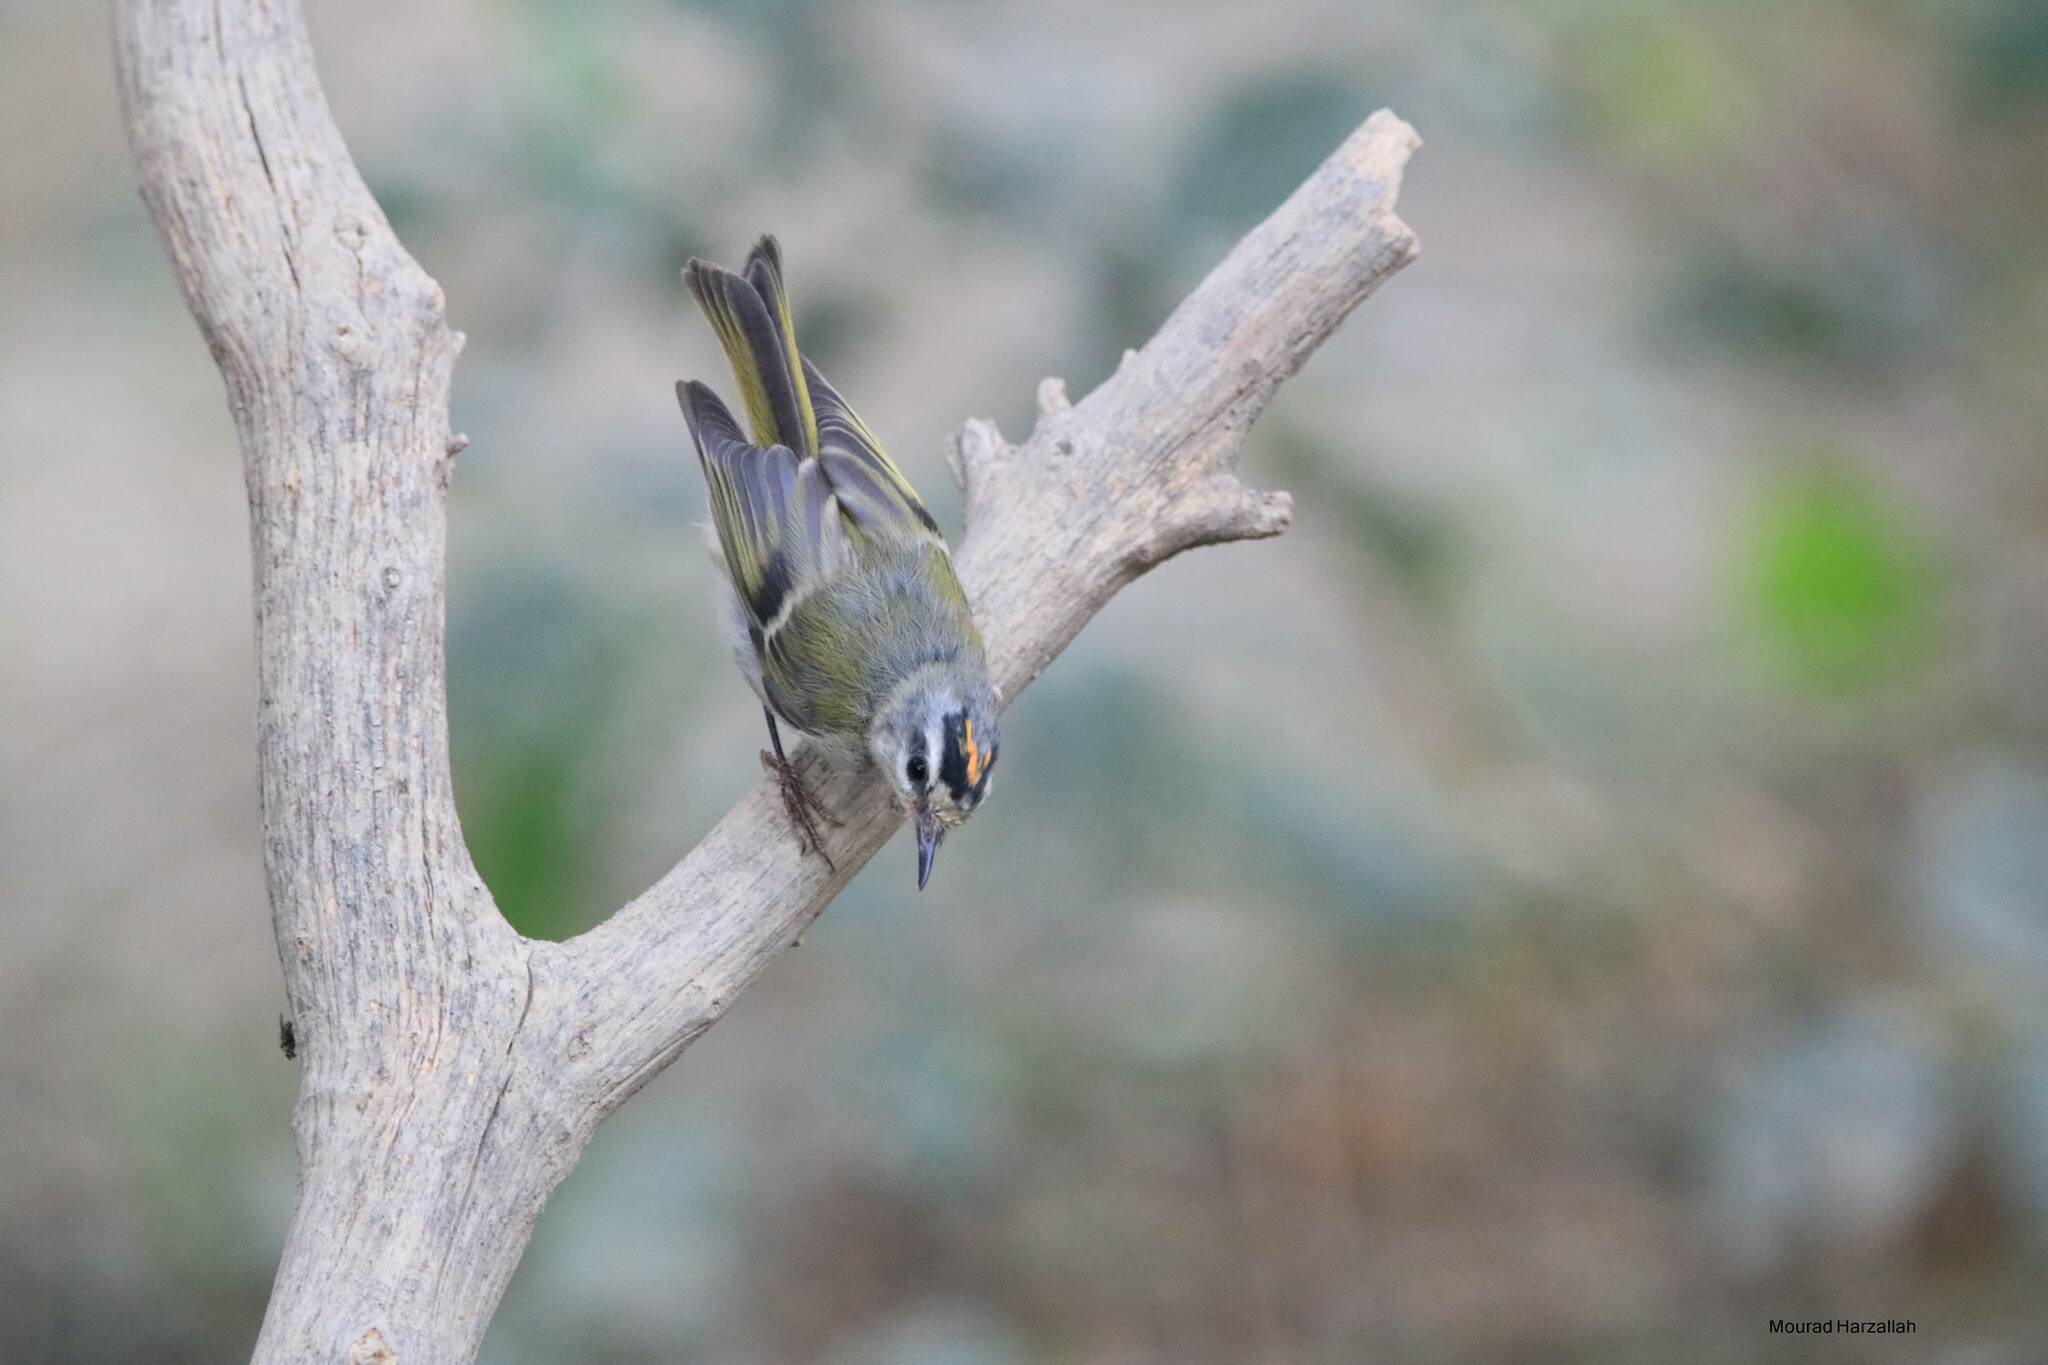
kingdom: Animalia
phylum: Chordata
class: Aves
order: Passeriformes
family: Regulidae
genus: Regulus
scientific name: Regulus ignicapilla
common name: Firecrest
